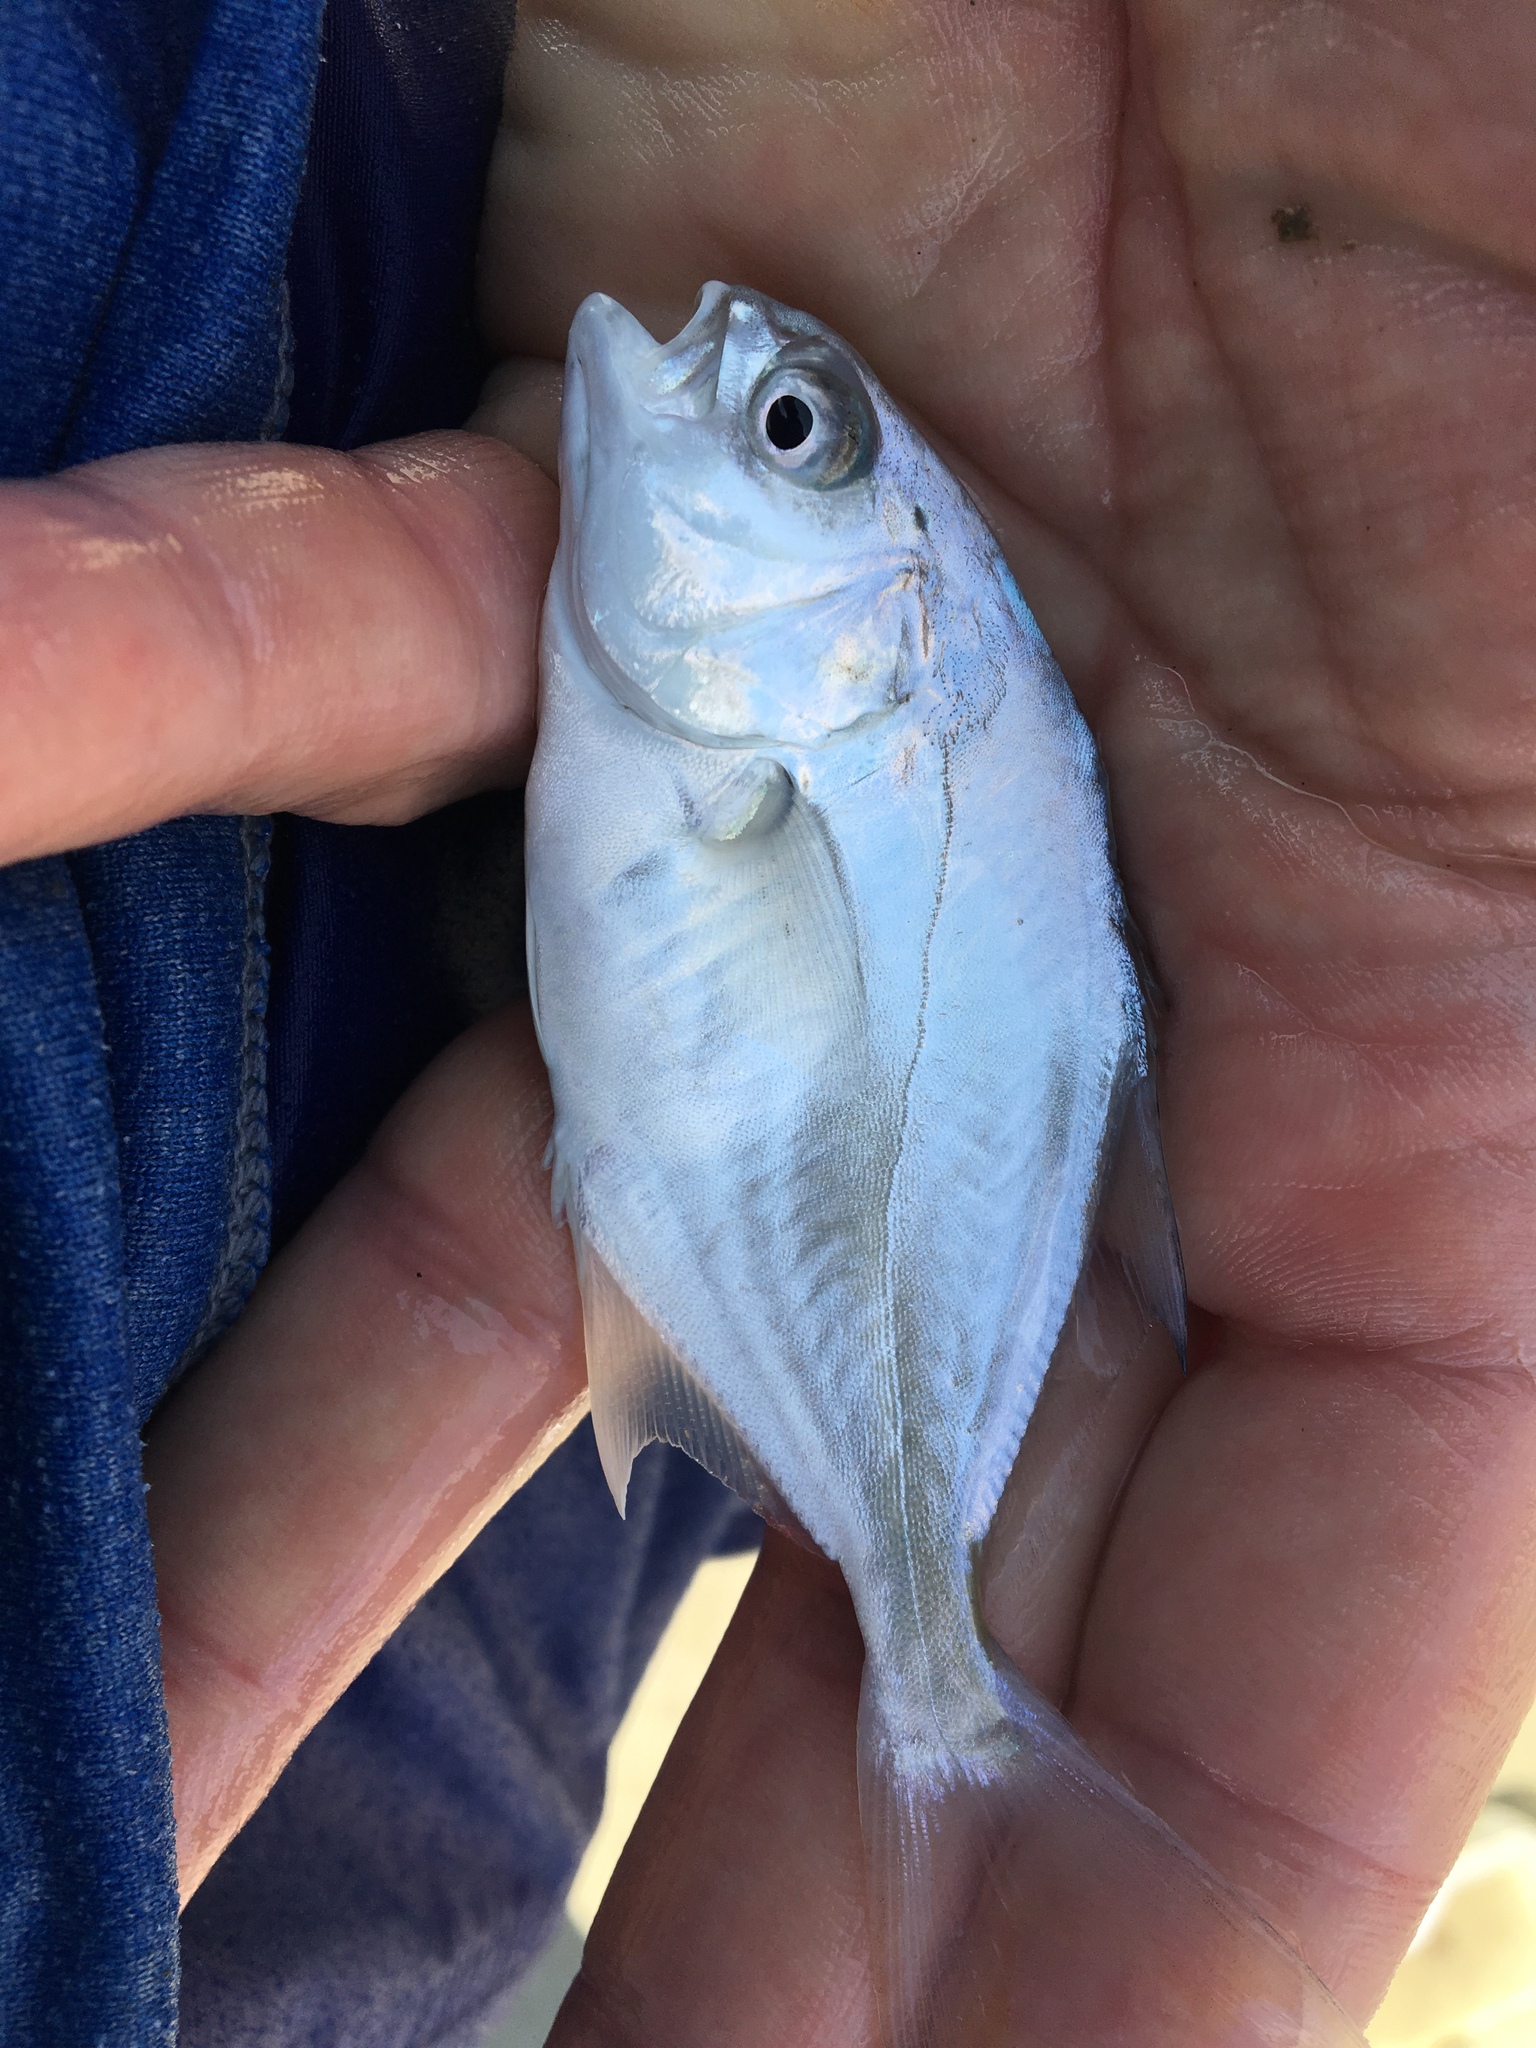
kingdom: Animalia
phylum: Chordata
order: Perciformes
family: Carangidae
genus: Trachinotus
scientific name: Trachinotus carolinus
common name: Florida pompano
